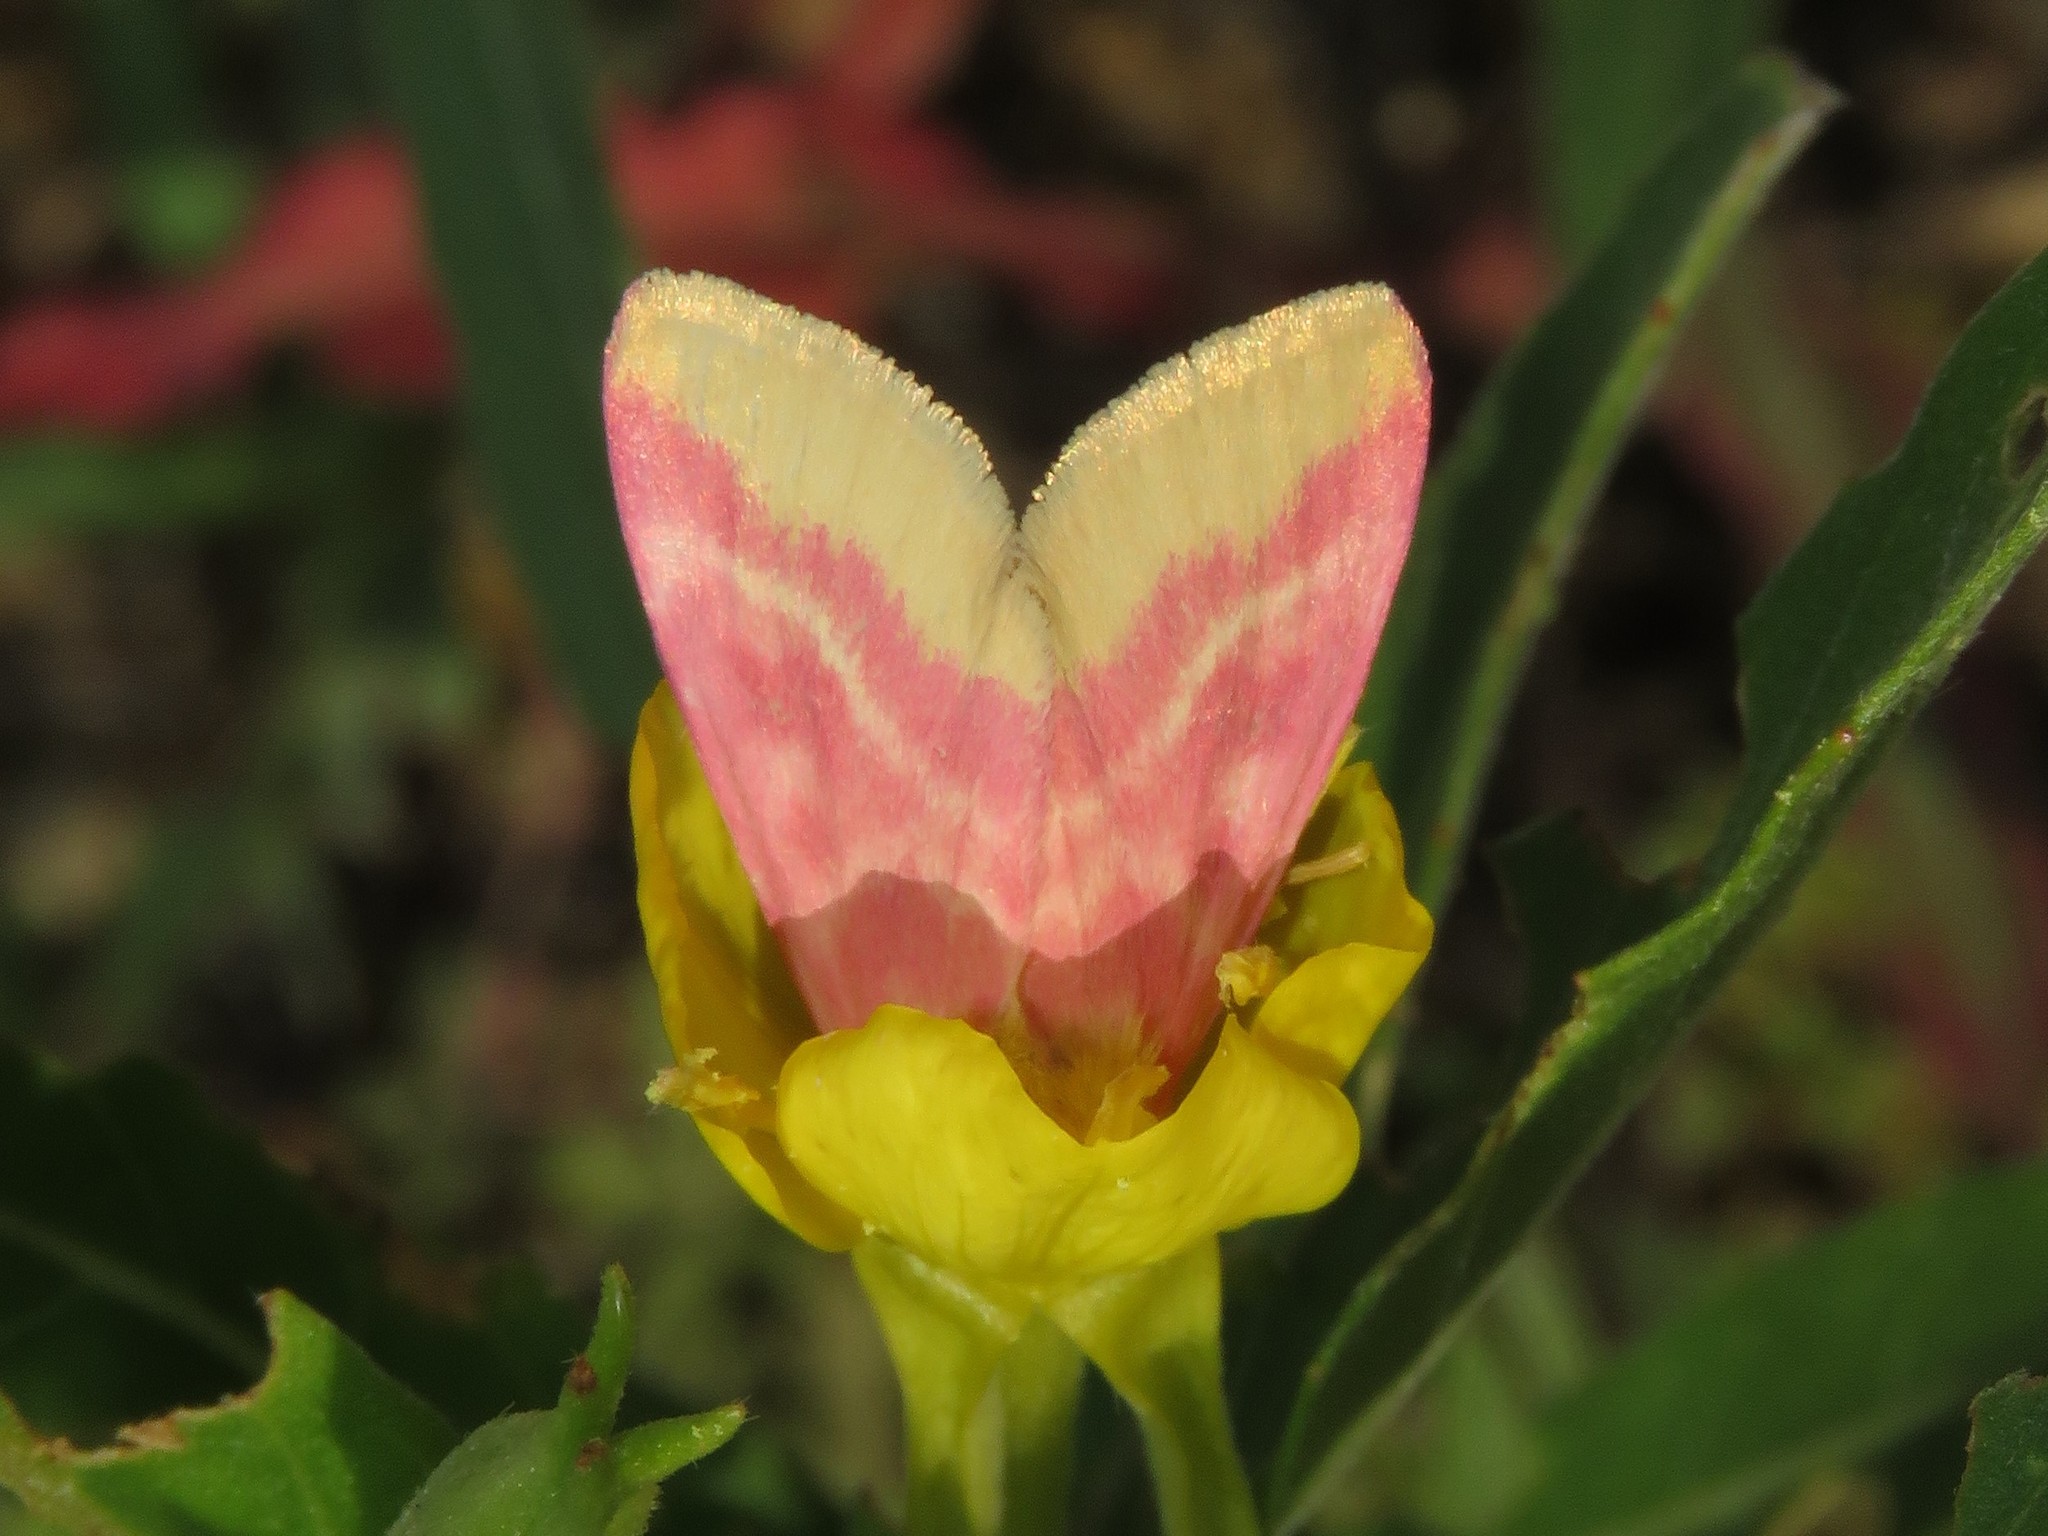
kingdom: Animalia
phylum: Arthropoda
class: Insecta
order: Lepidoptera
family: Noctuidae
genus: Schinia
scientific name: Schinia florida
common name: Primrose moth
